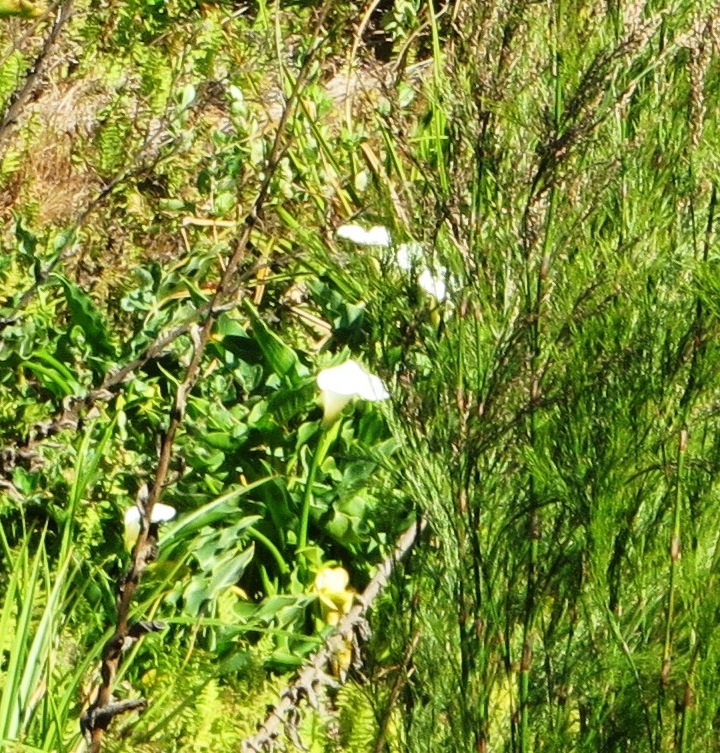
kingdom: Plantae
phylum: Tracheophyta
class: Liliopsida
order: Alismatales
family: Araceae
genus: Zantedeschia
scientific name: Zantedeschia aethiopica
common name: Altar-lily
